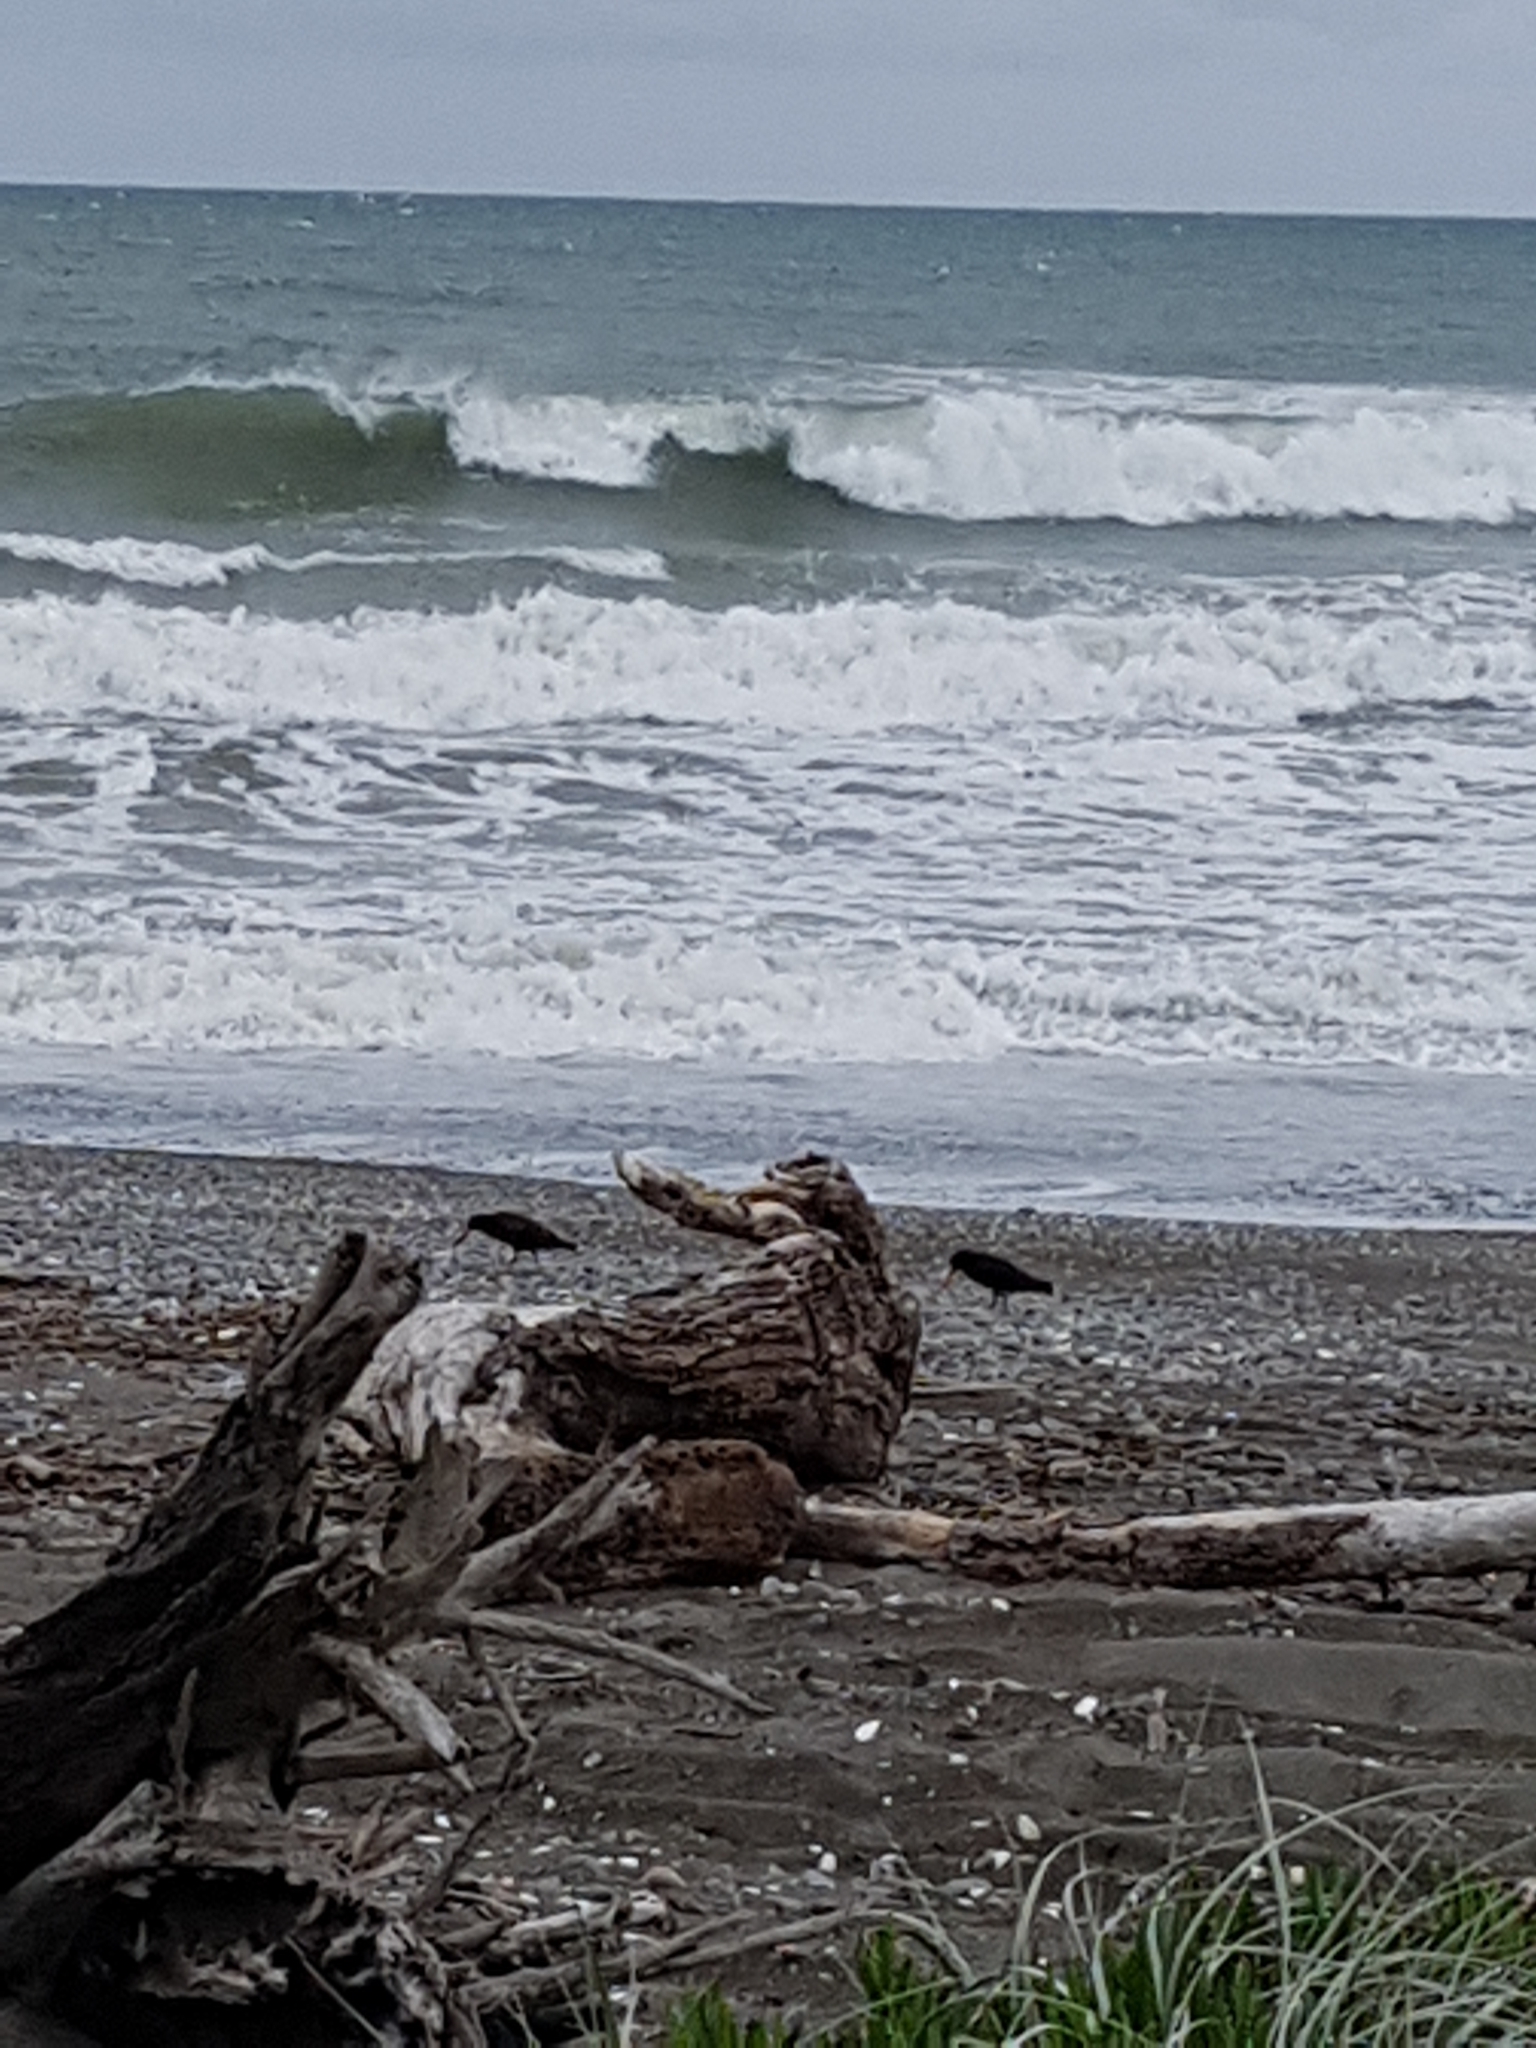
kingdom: Animalia
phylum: Chordata
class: Aves
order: Charadriiformes
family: Haematopodidae
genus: Haematopus
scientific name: Haematopus unicolor
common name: Variable oystercatcher
